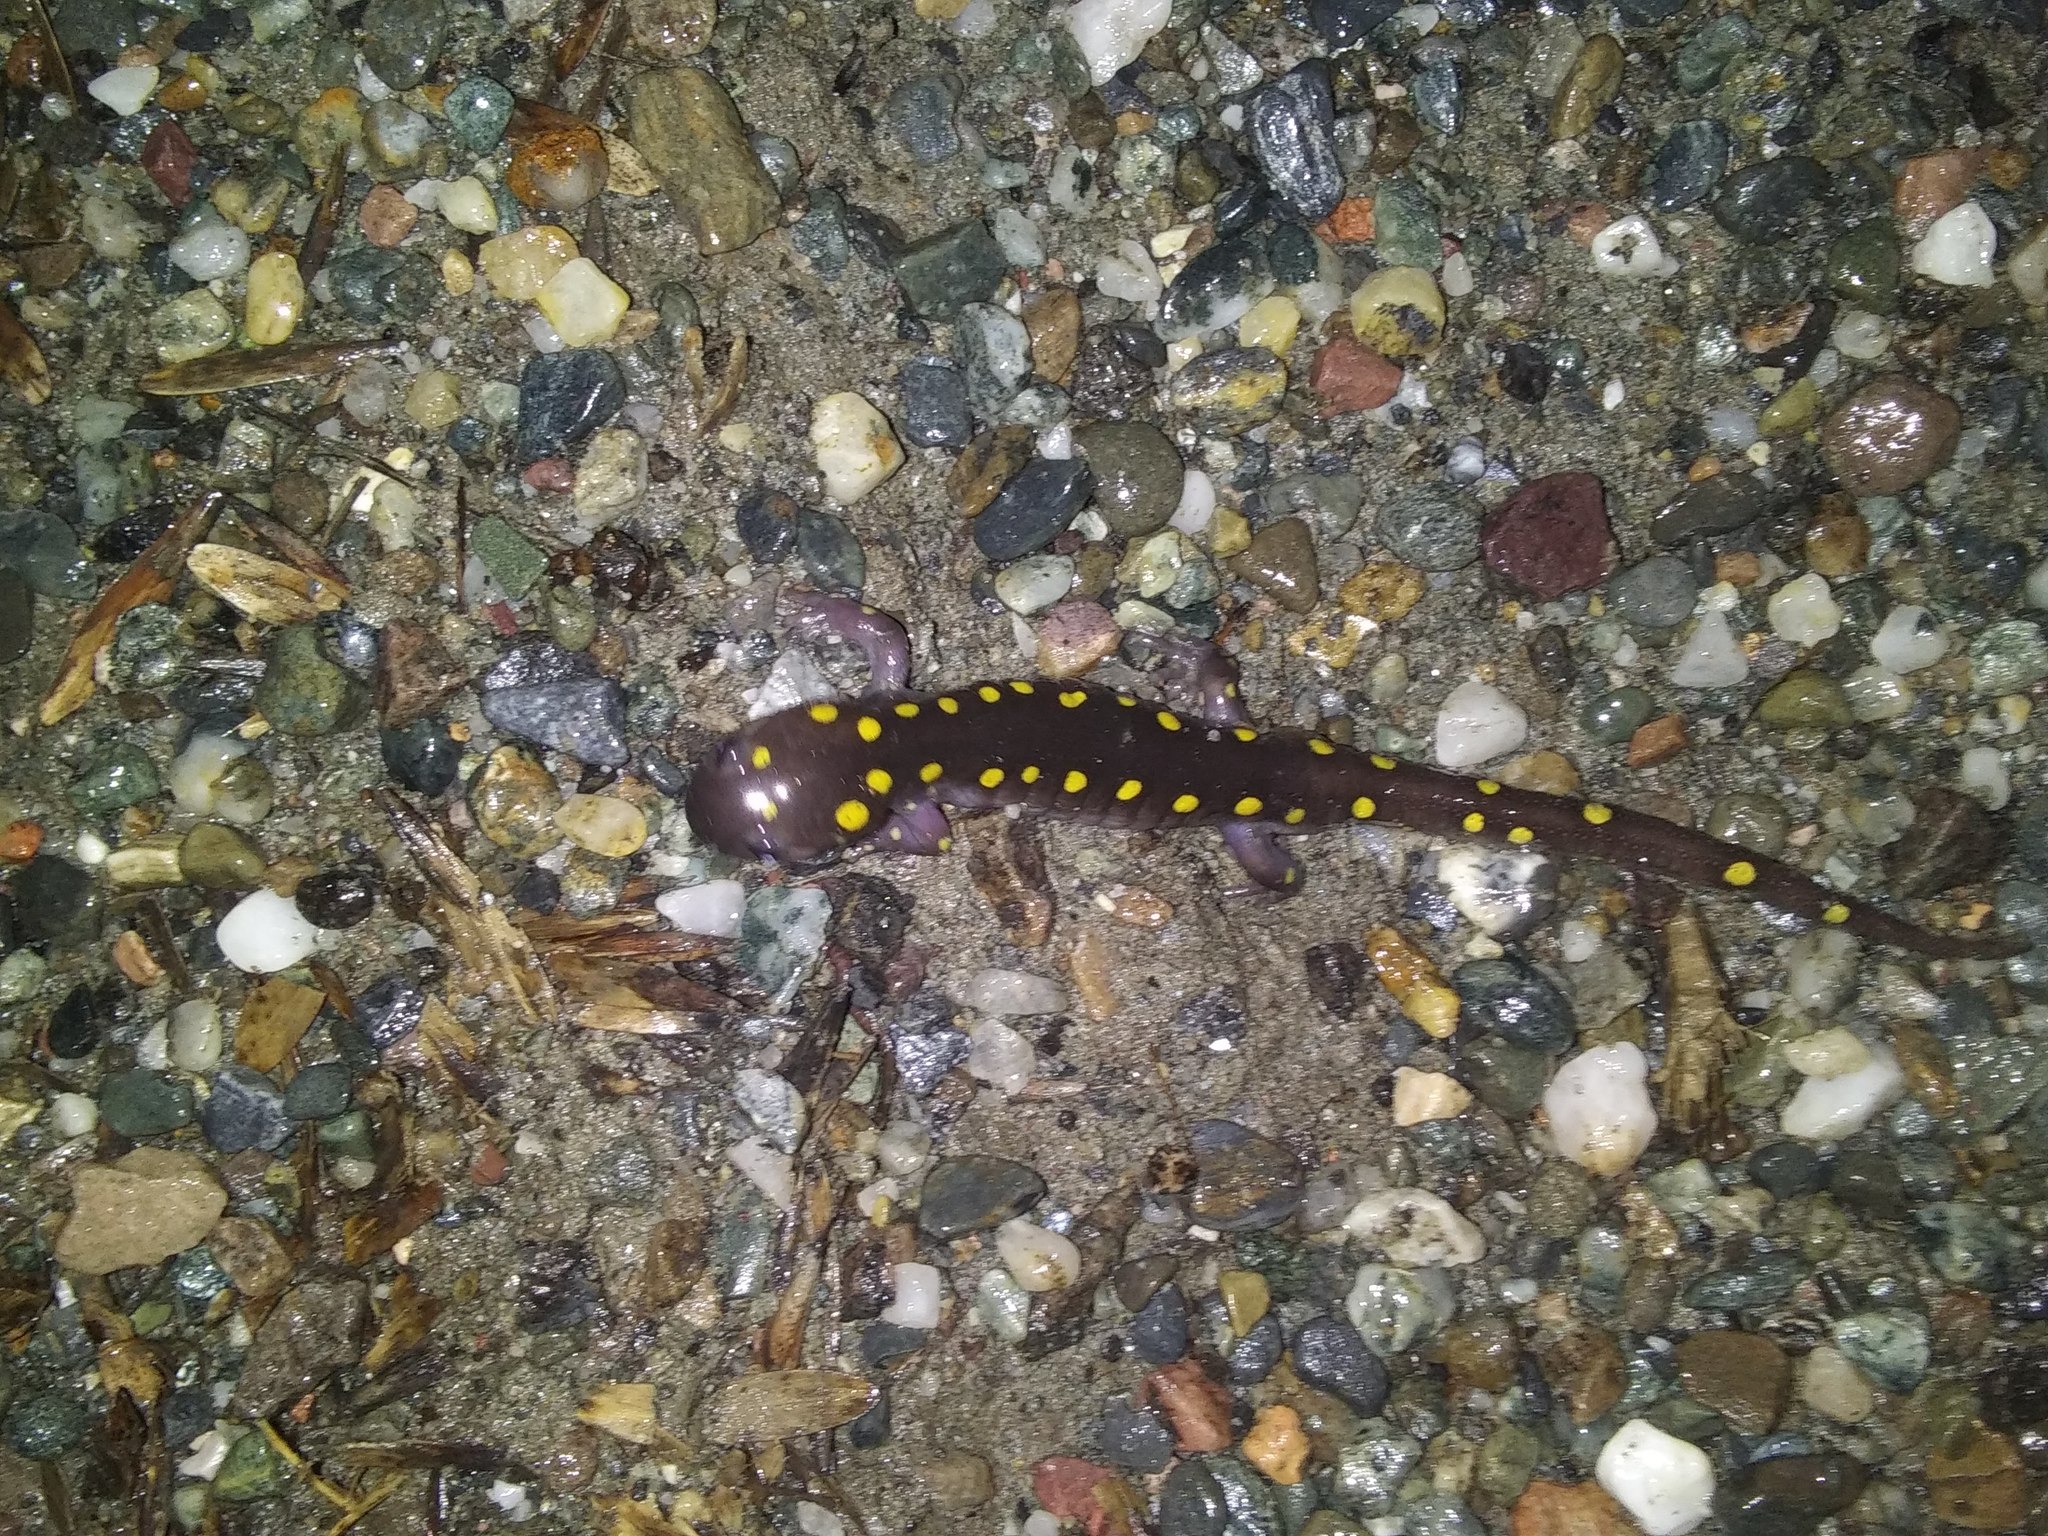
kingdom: Animalia
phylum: Chordata
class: Amphibia
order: Caudata
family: Ambystomatidae
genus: Ambystoma
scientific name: Ambystoma maculatum
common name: Spotted salamander
